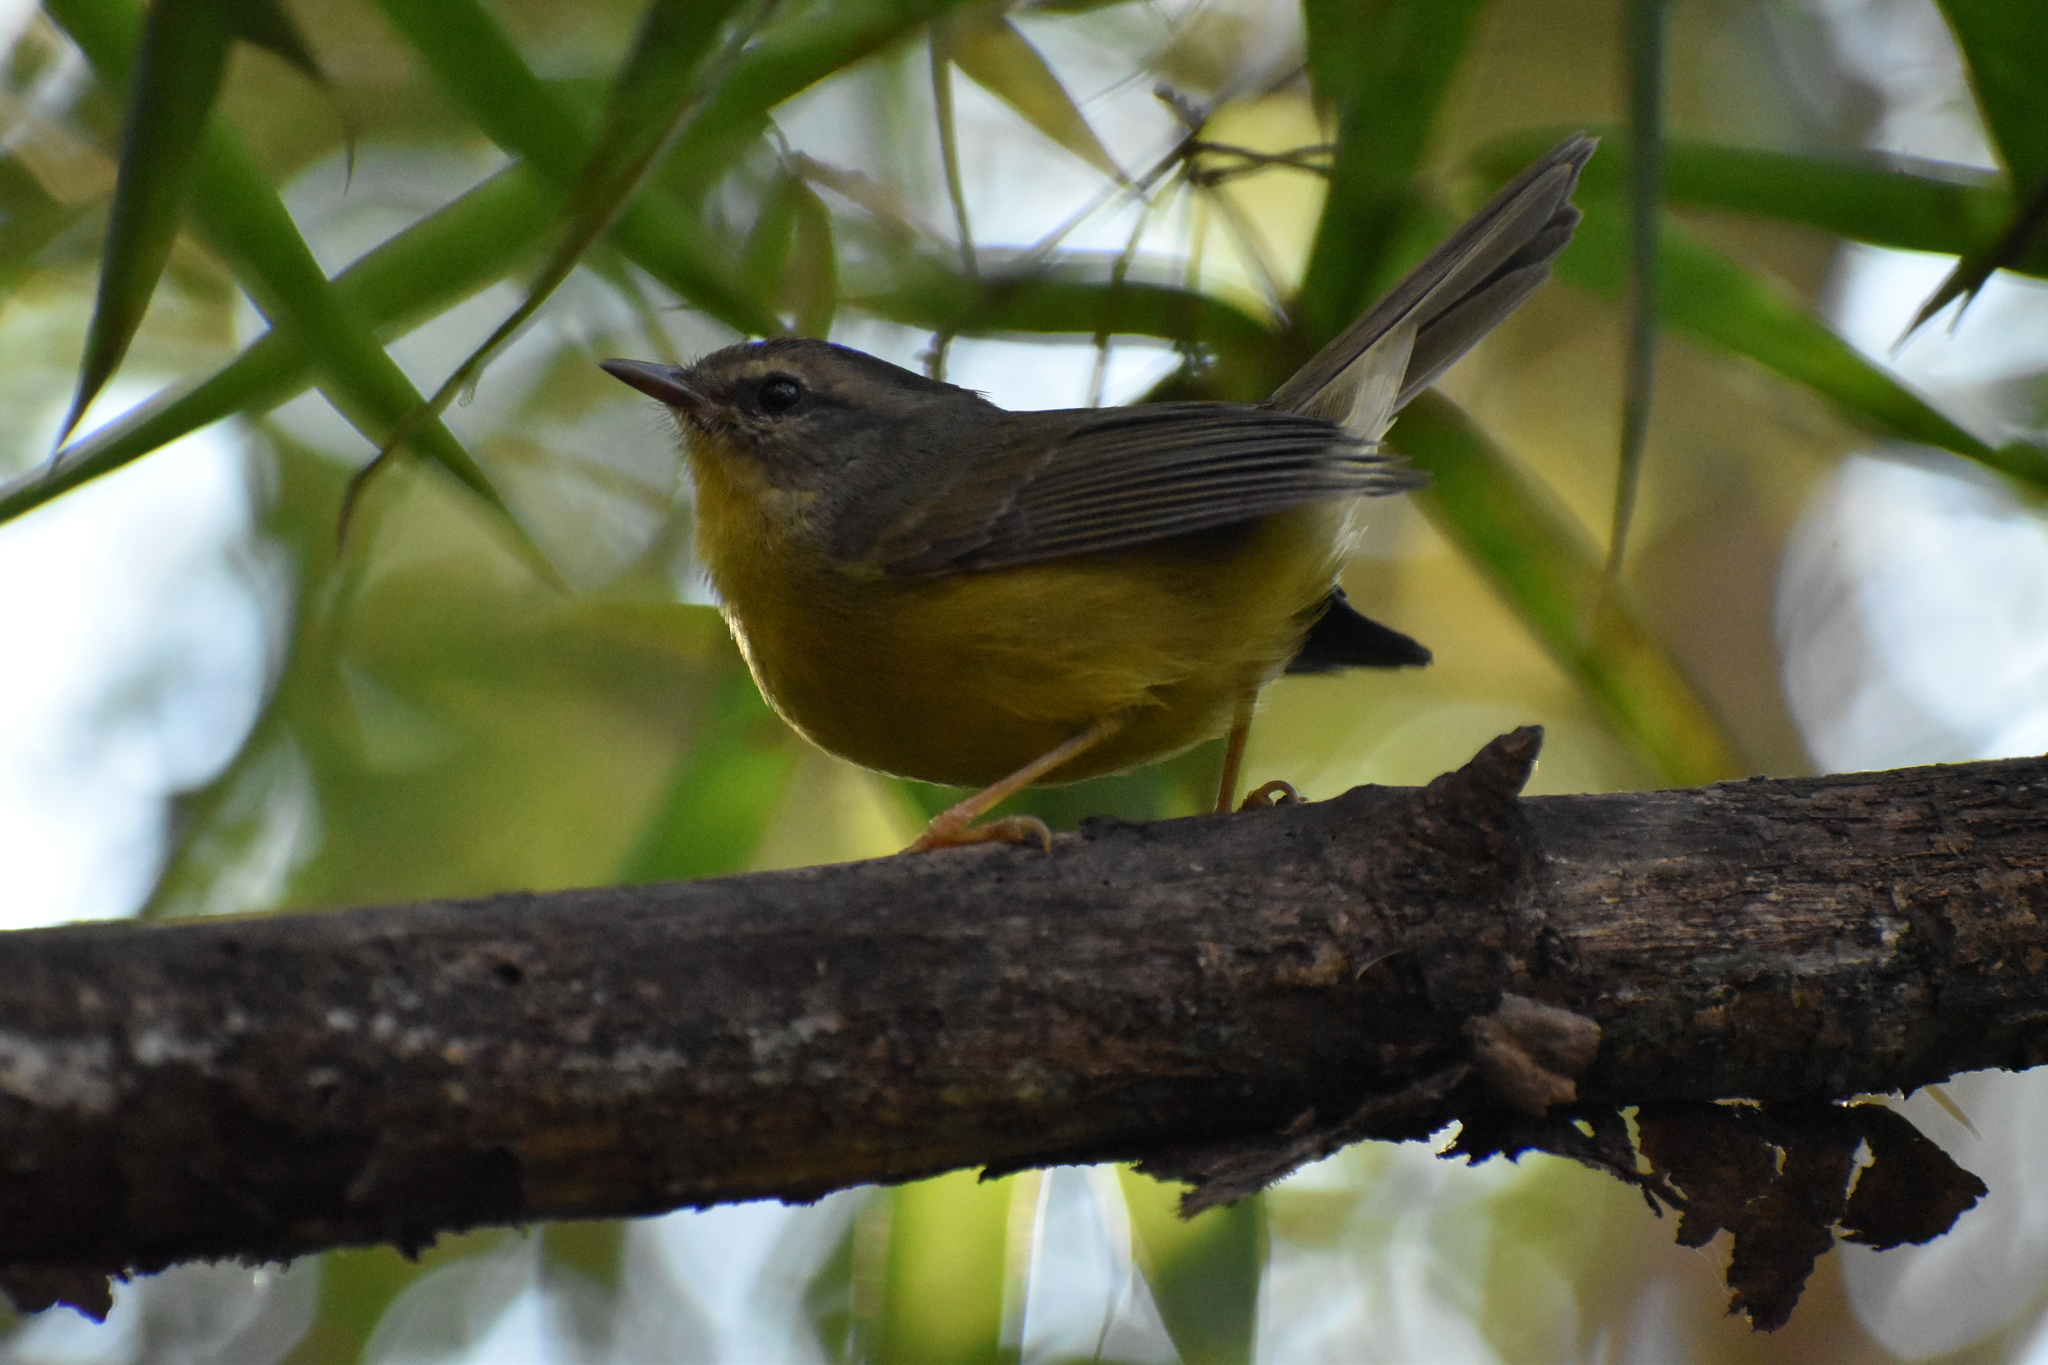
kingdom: Animalia
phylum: Chordata
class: Aves
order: Passeriformes
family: Parulidae
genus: Basileuterus
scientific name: Basileuterus culicivorus
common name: Golden-crowned warbler
